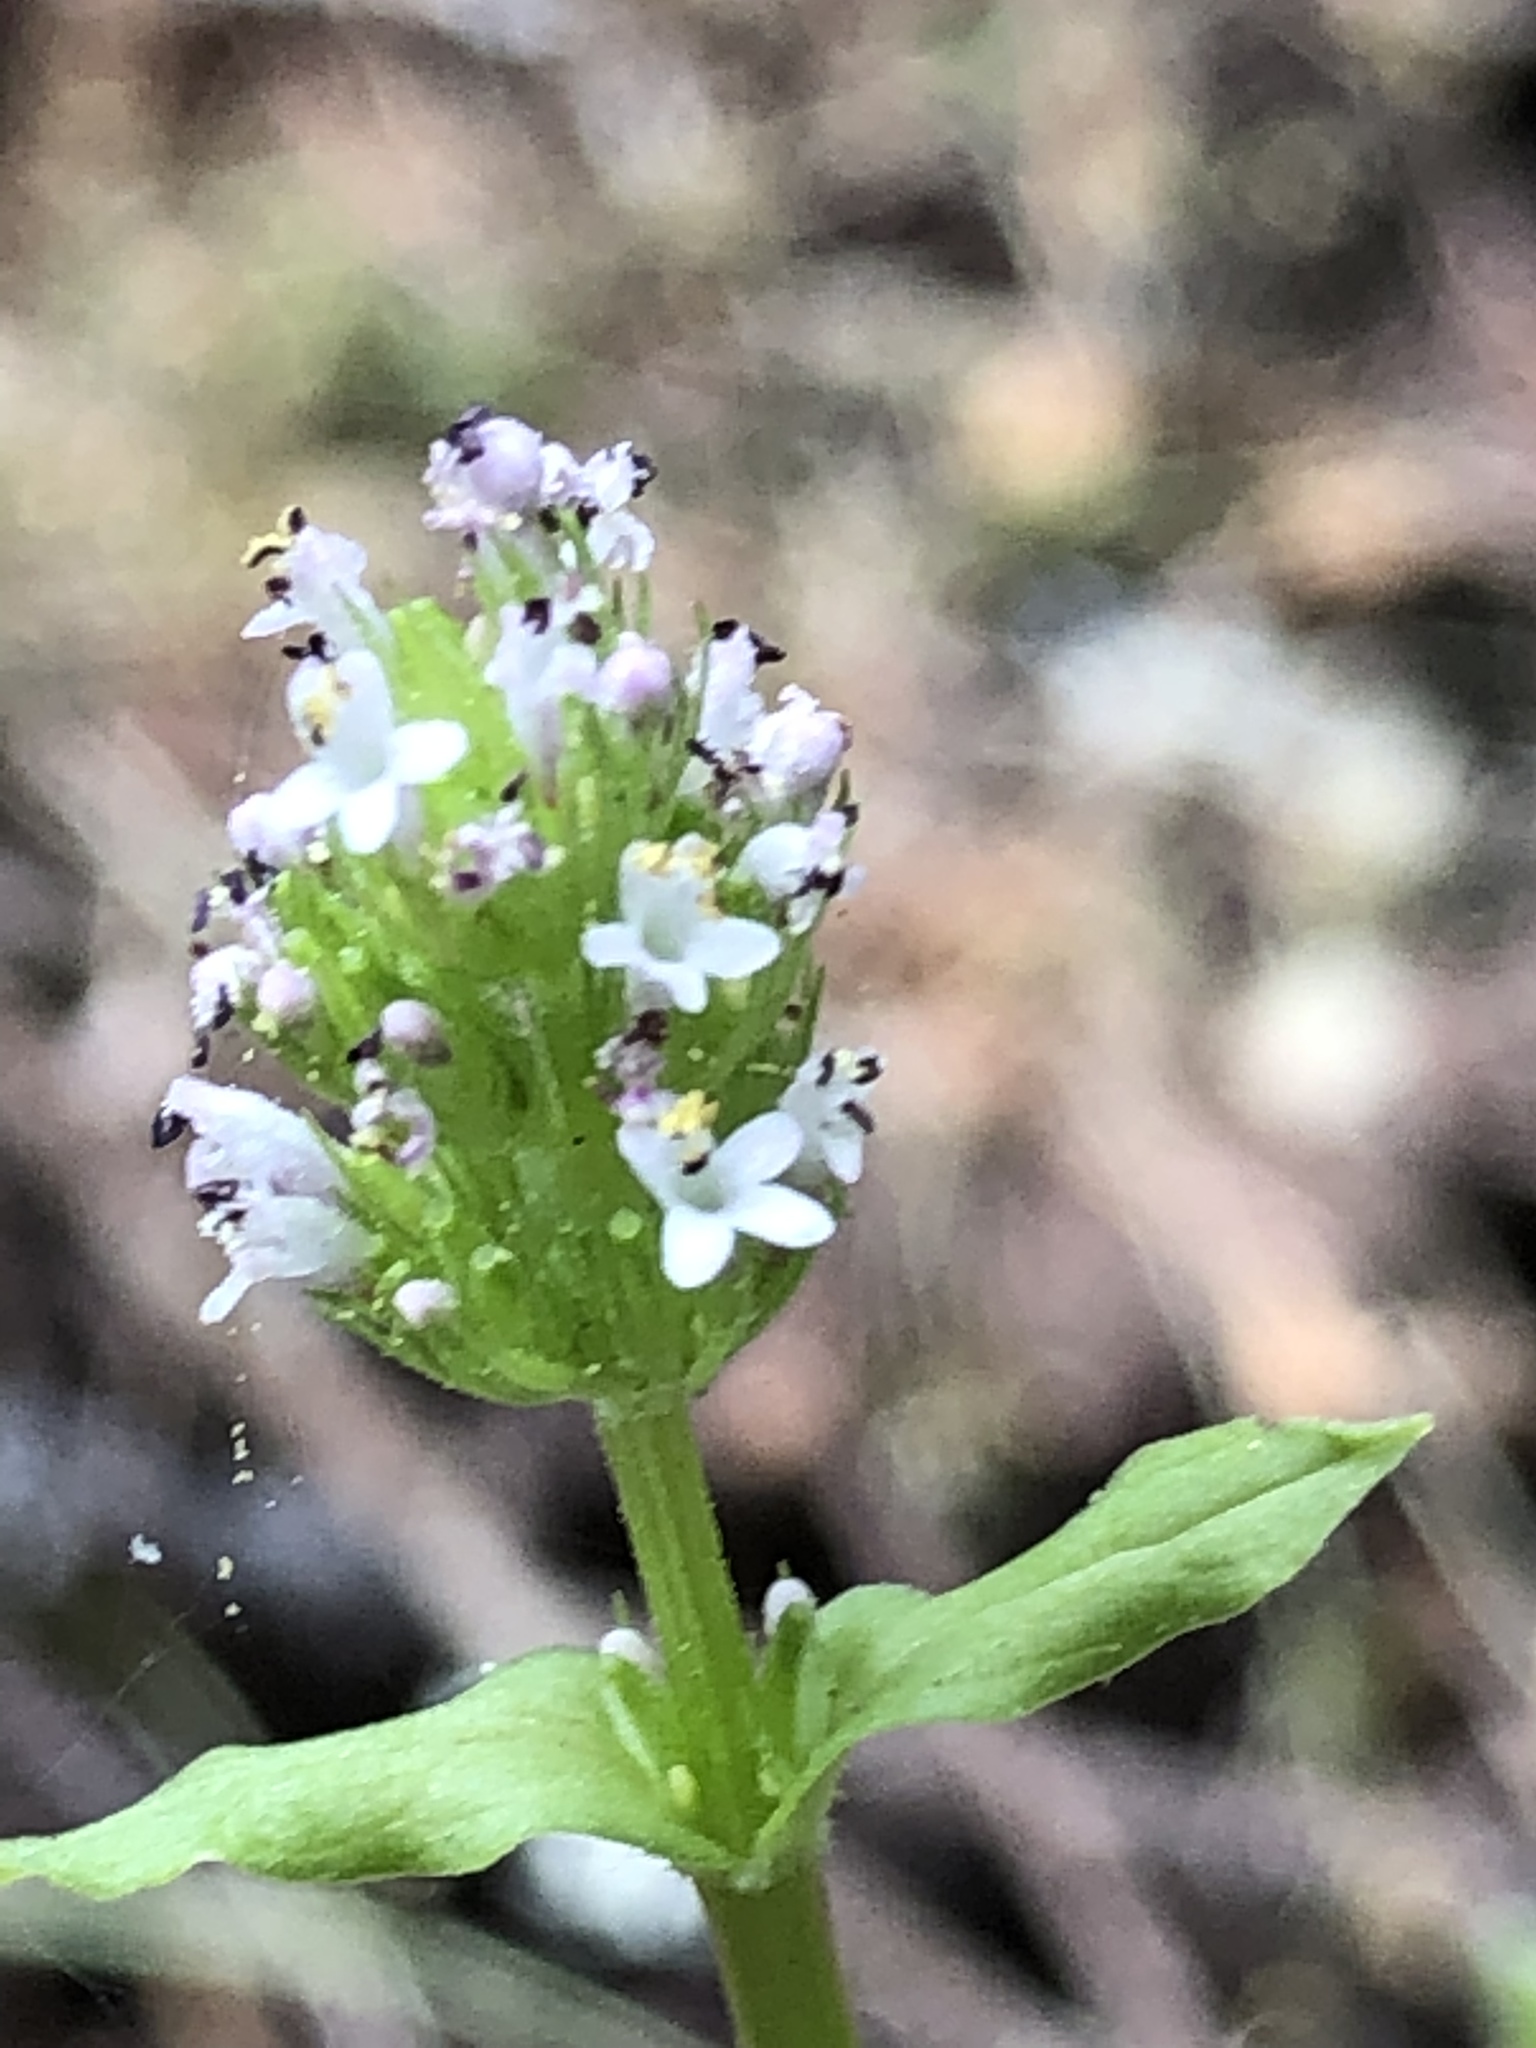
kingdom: Plantae
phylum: Tracheophyta
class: Magnoliopsida
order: Dipsacales
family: Caprifoliaceae
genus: Plectritis
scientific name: Plectritis brachystemon
